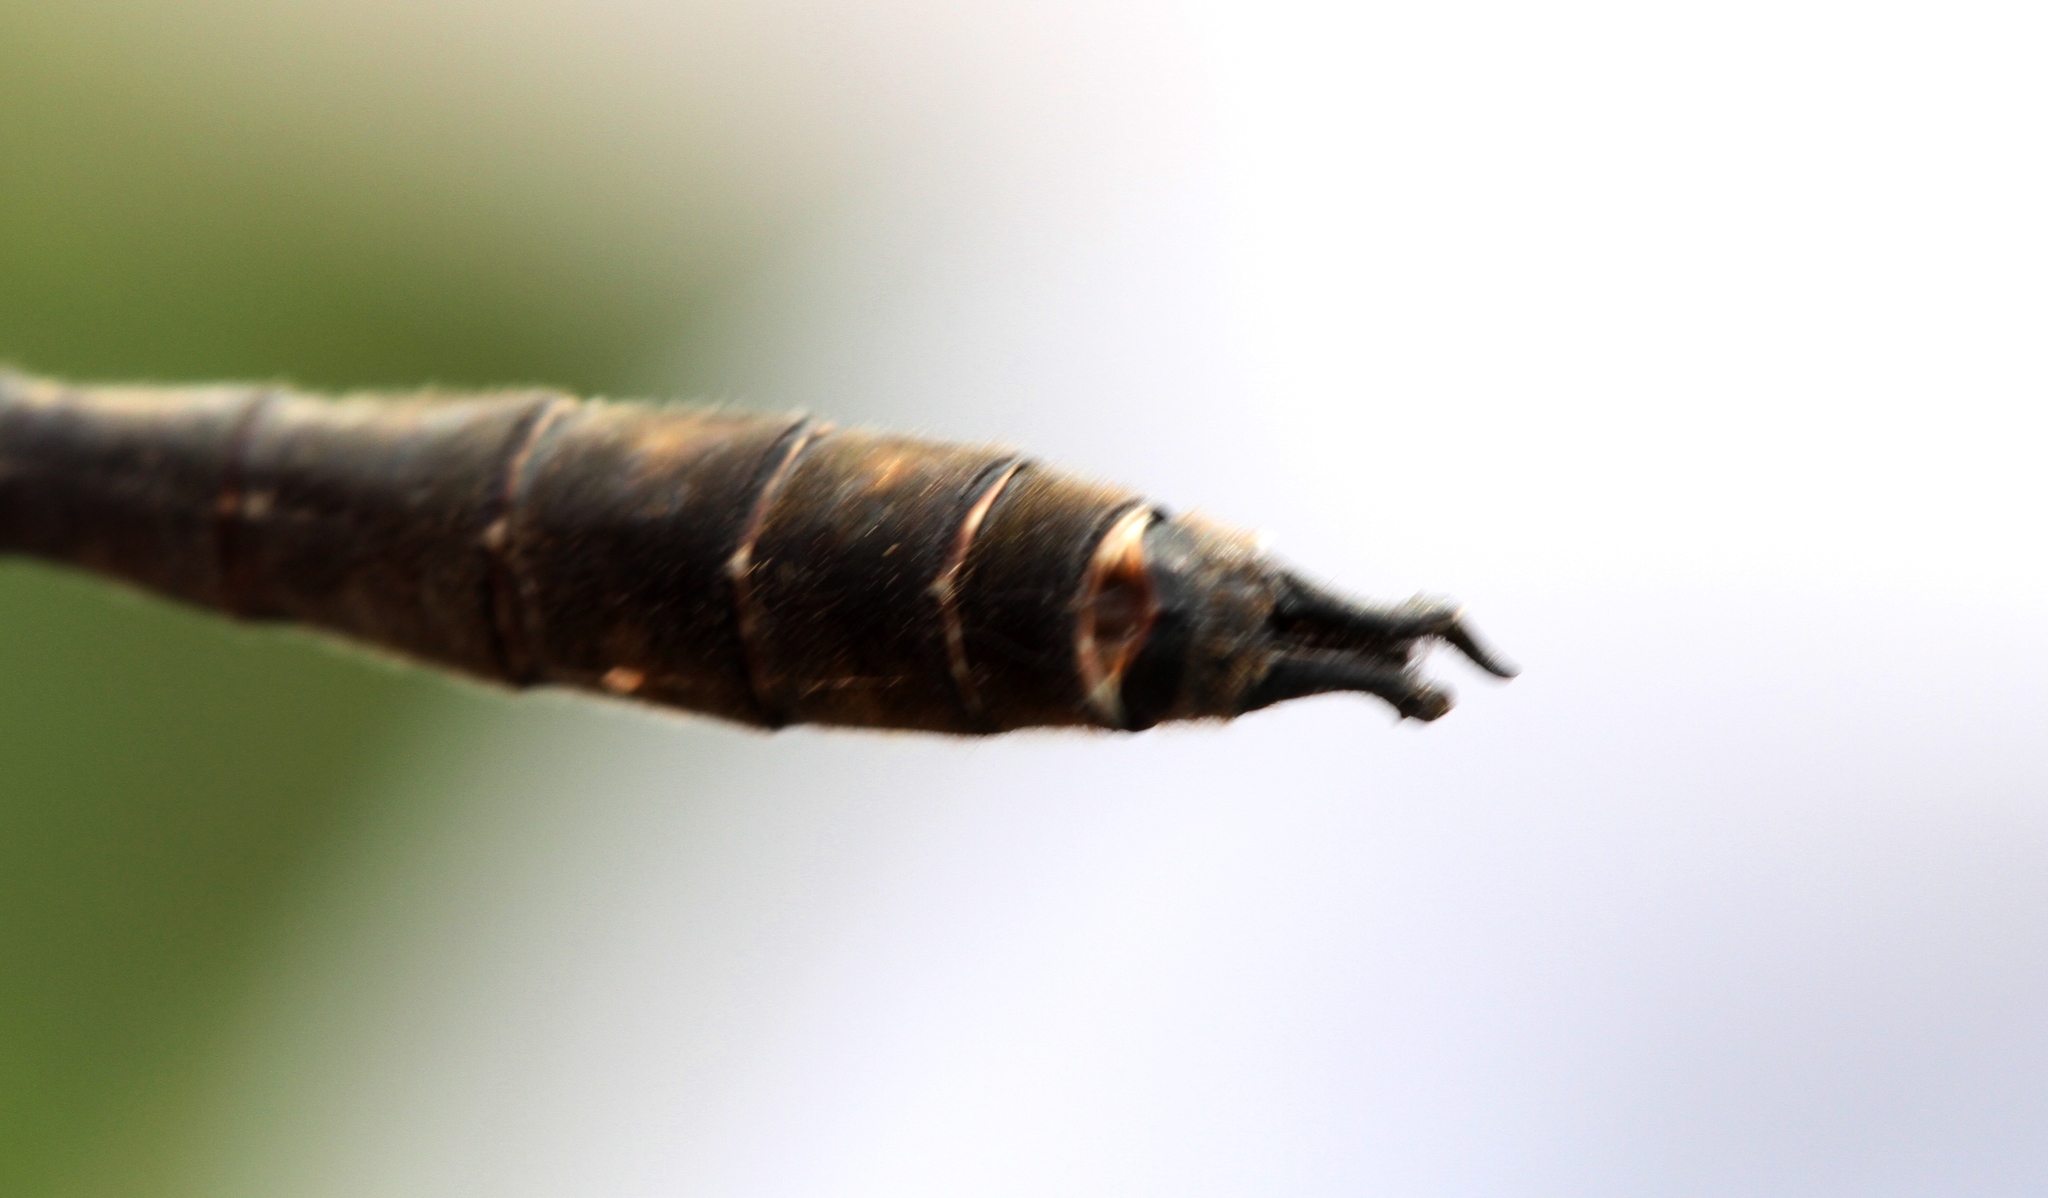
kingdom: Animalia
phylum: Arthropoda
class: Insecta
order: Odonata
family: Corduliidae
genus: Somatochlora
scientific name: Somatochlora whitehousei
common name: Whitehouse's emerald
